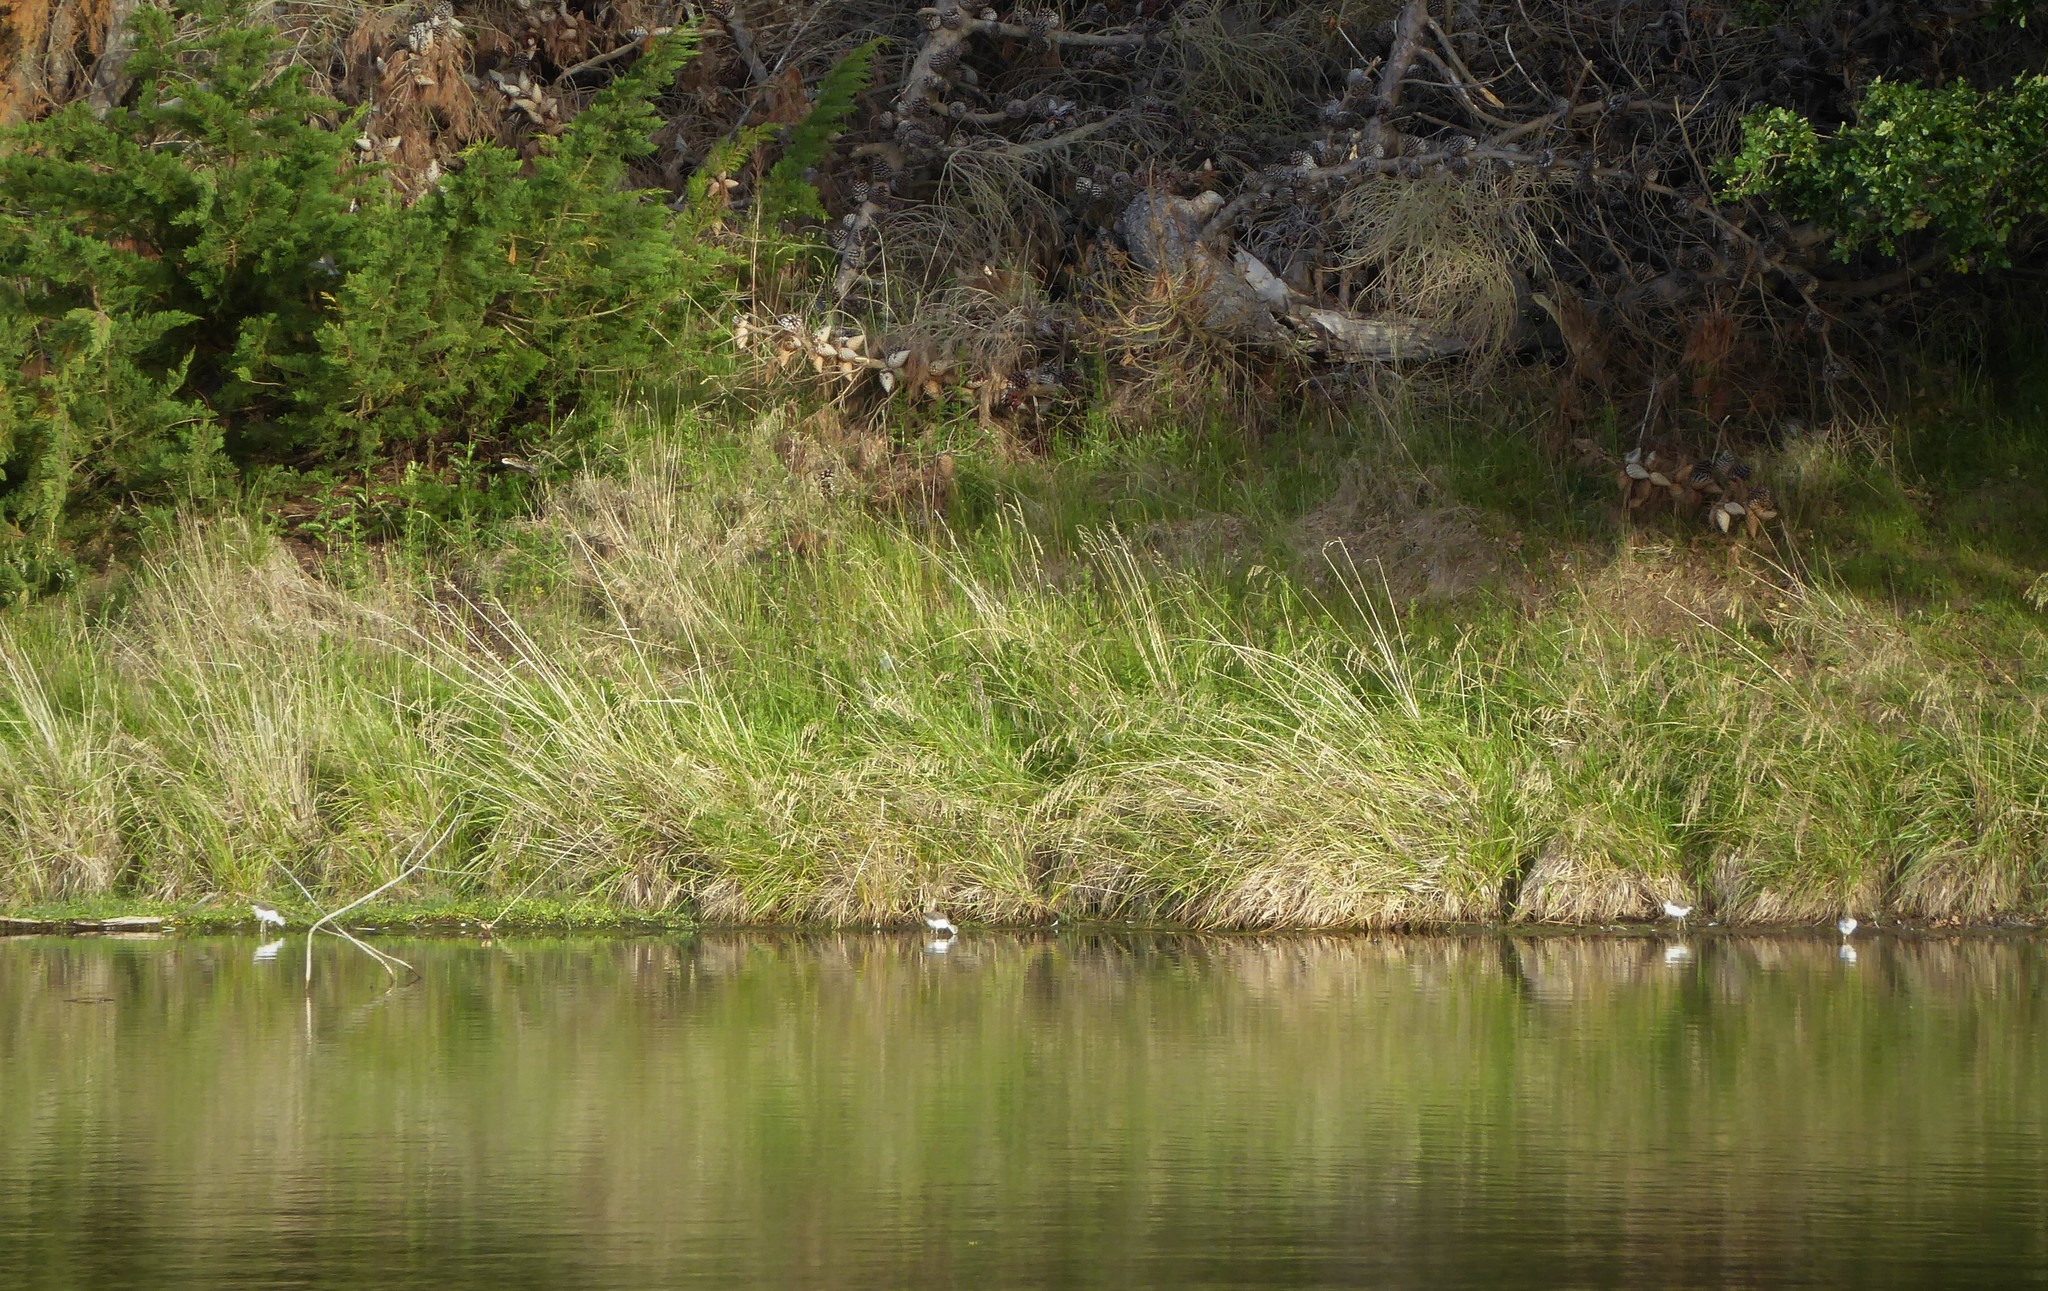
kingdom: Animalia
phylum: Chordata
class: Aves
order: Charadriiformes
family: Recurvirostridae
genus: Himantopus
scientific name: Himantopus leucocephalus
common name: White-headed stilt
